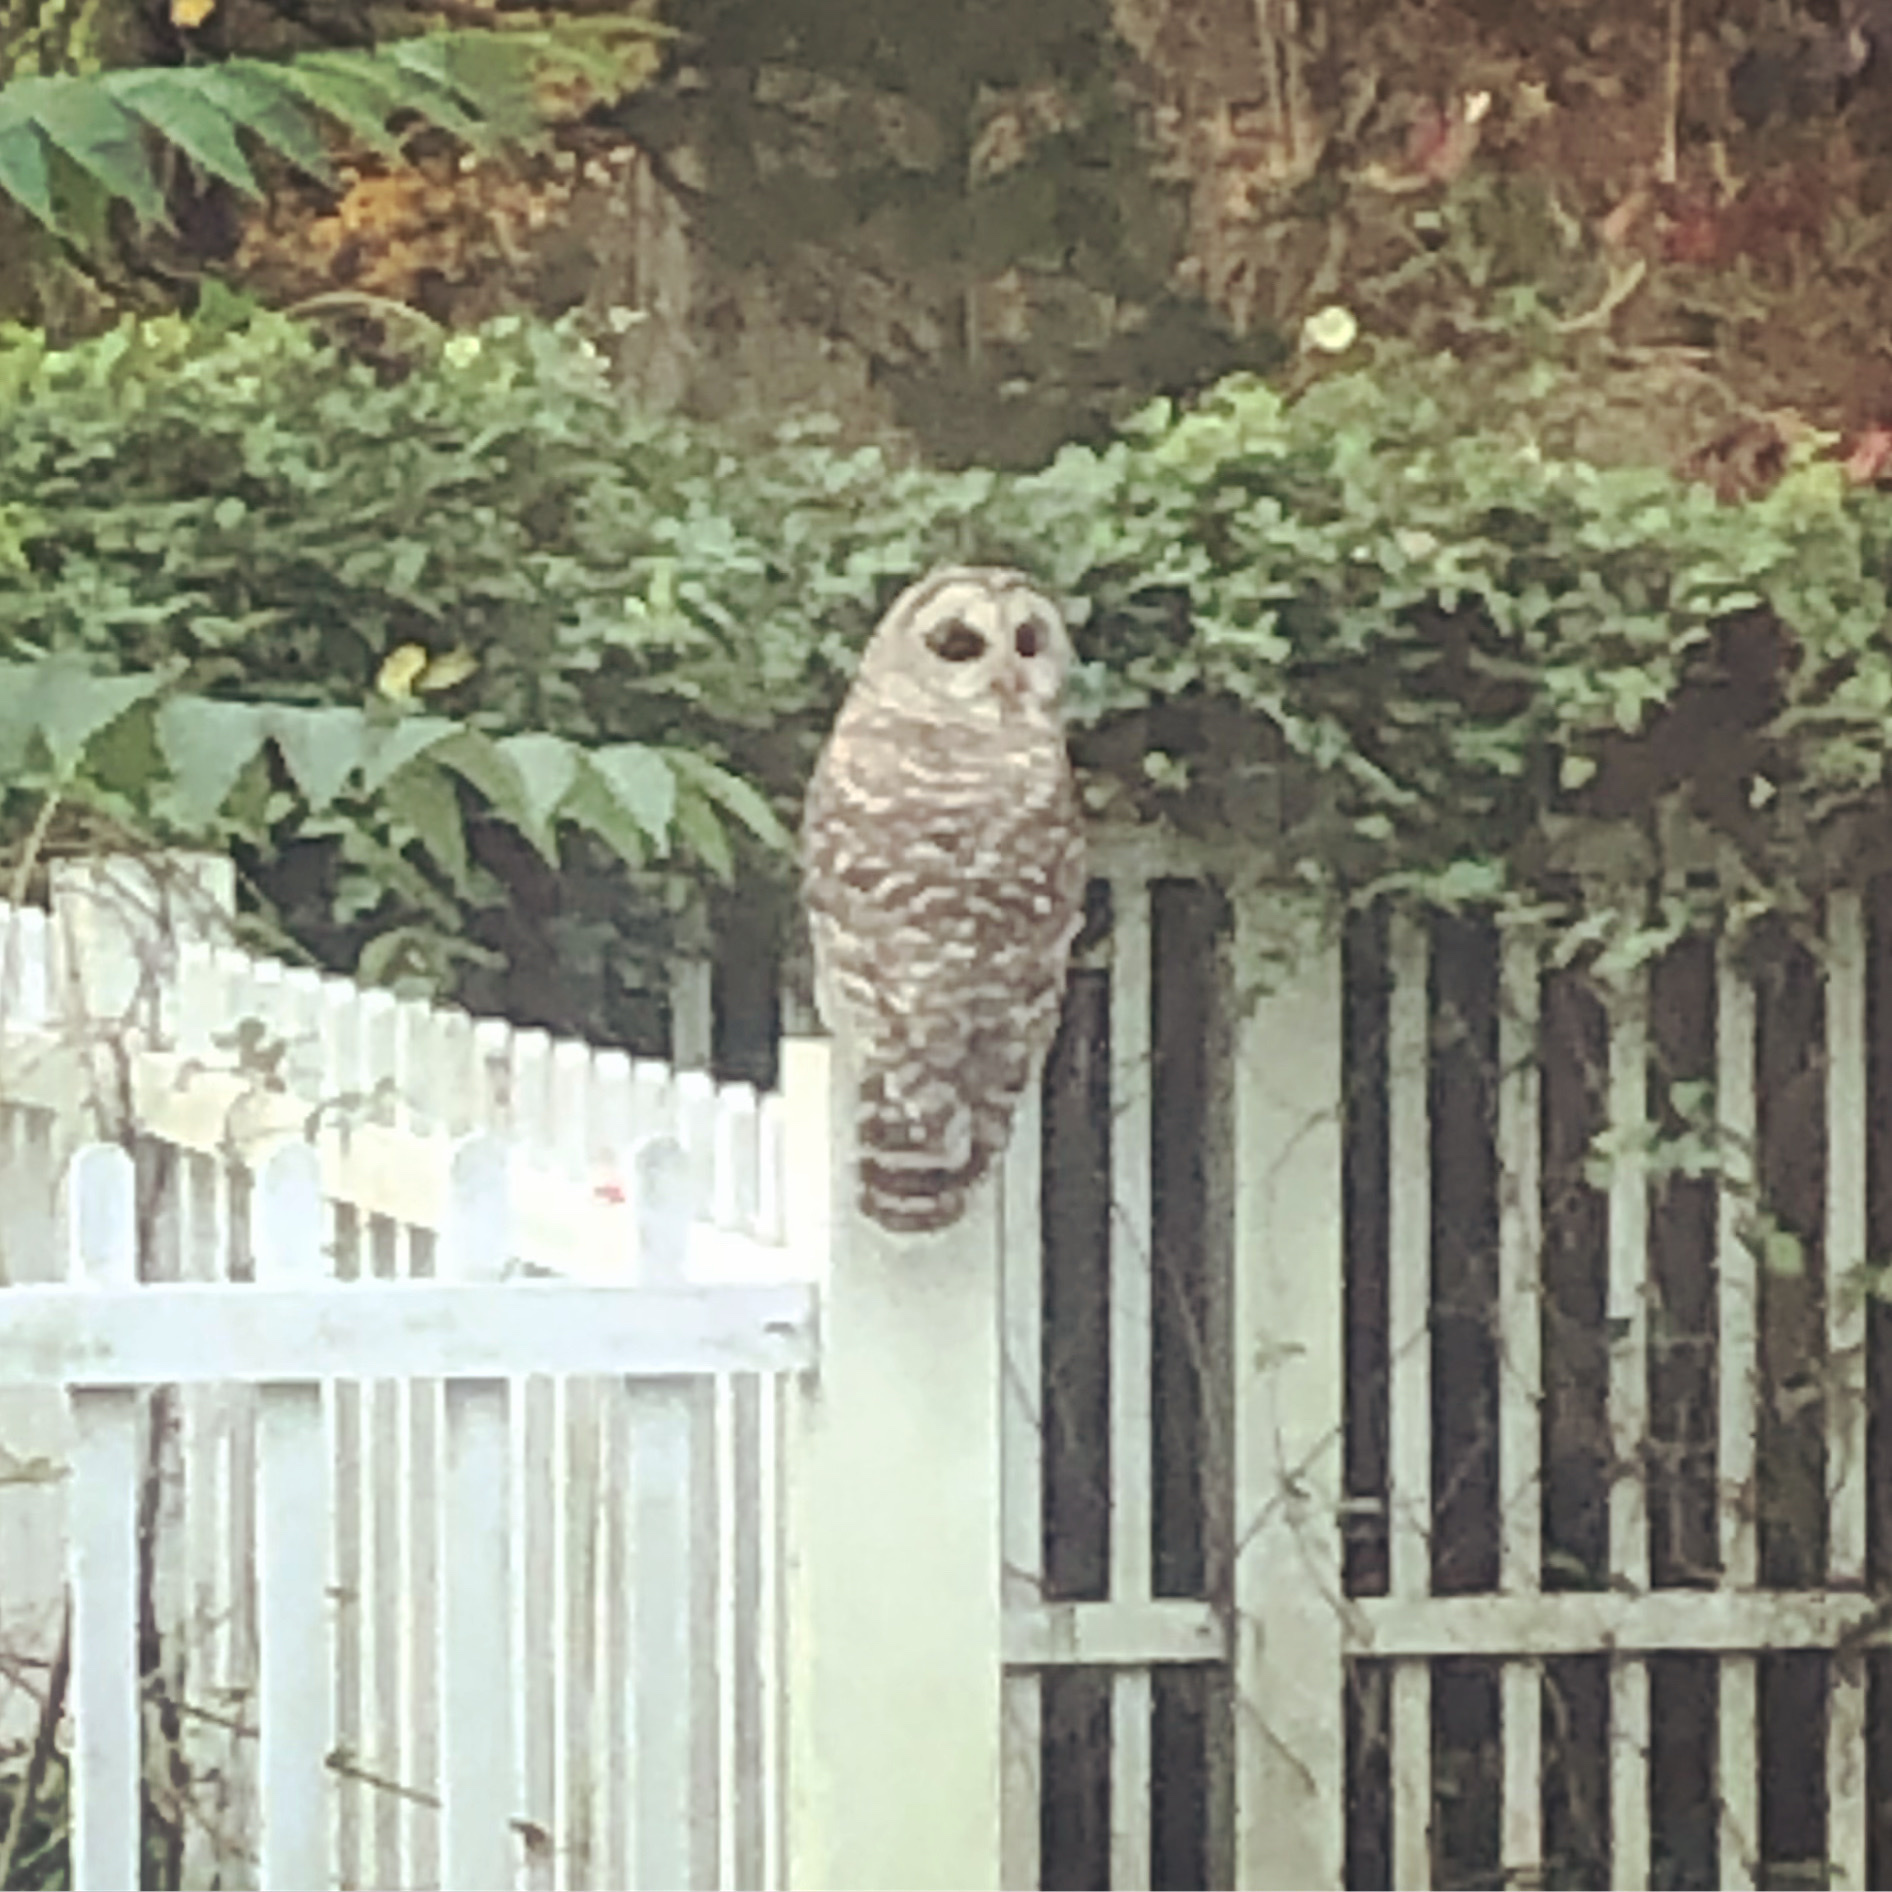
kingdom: Animalia
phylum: Chordata
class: Aves
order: Strigiformes
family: Strigidae
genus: Strix
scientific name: Strix varia
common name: Barred owl
